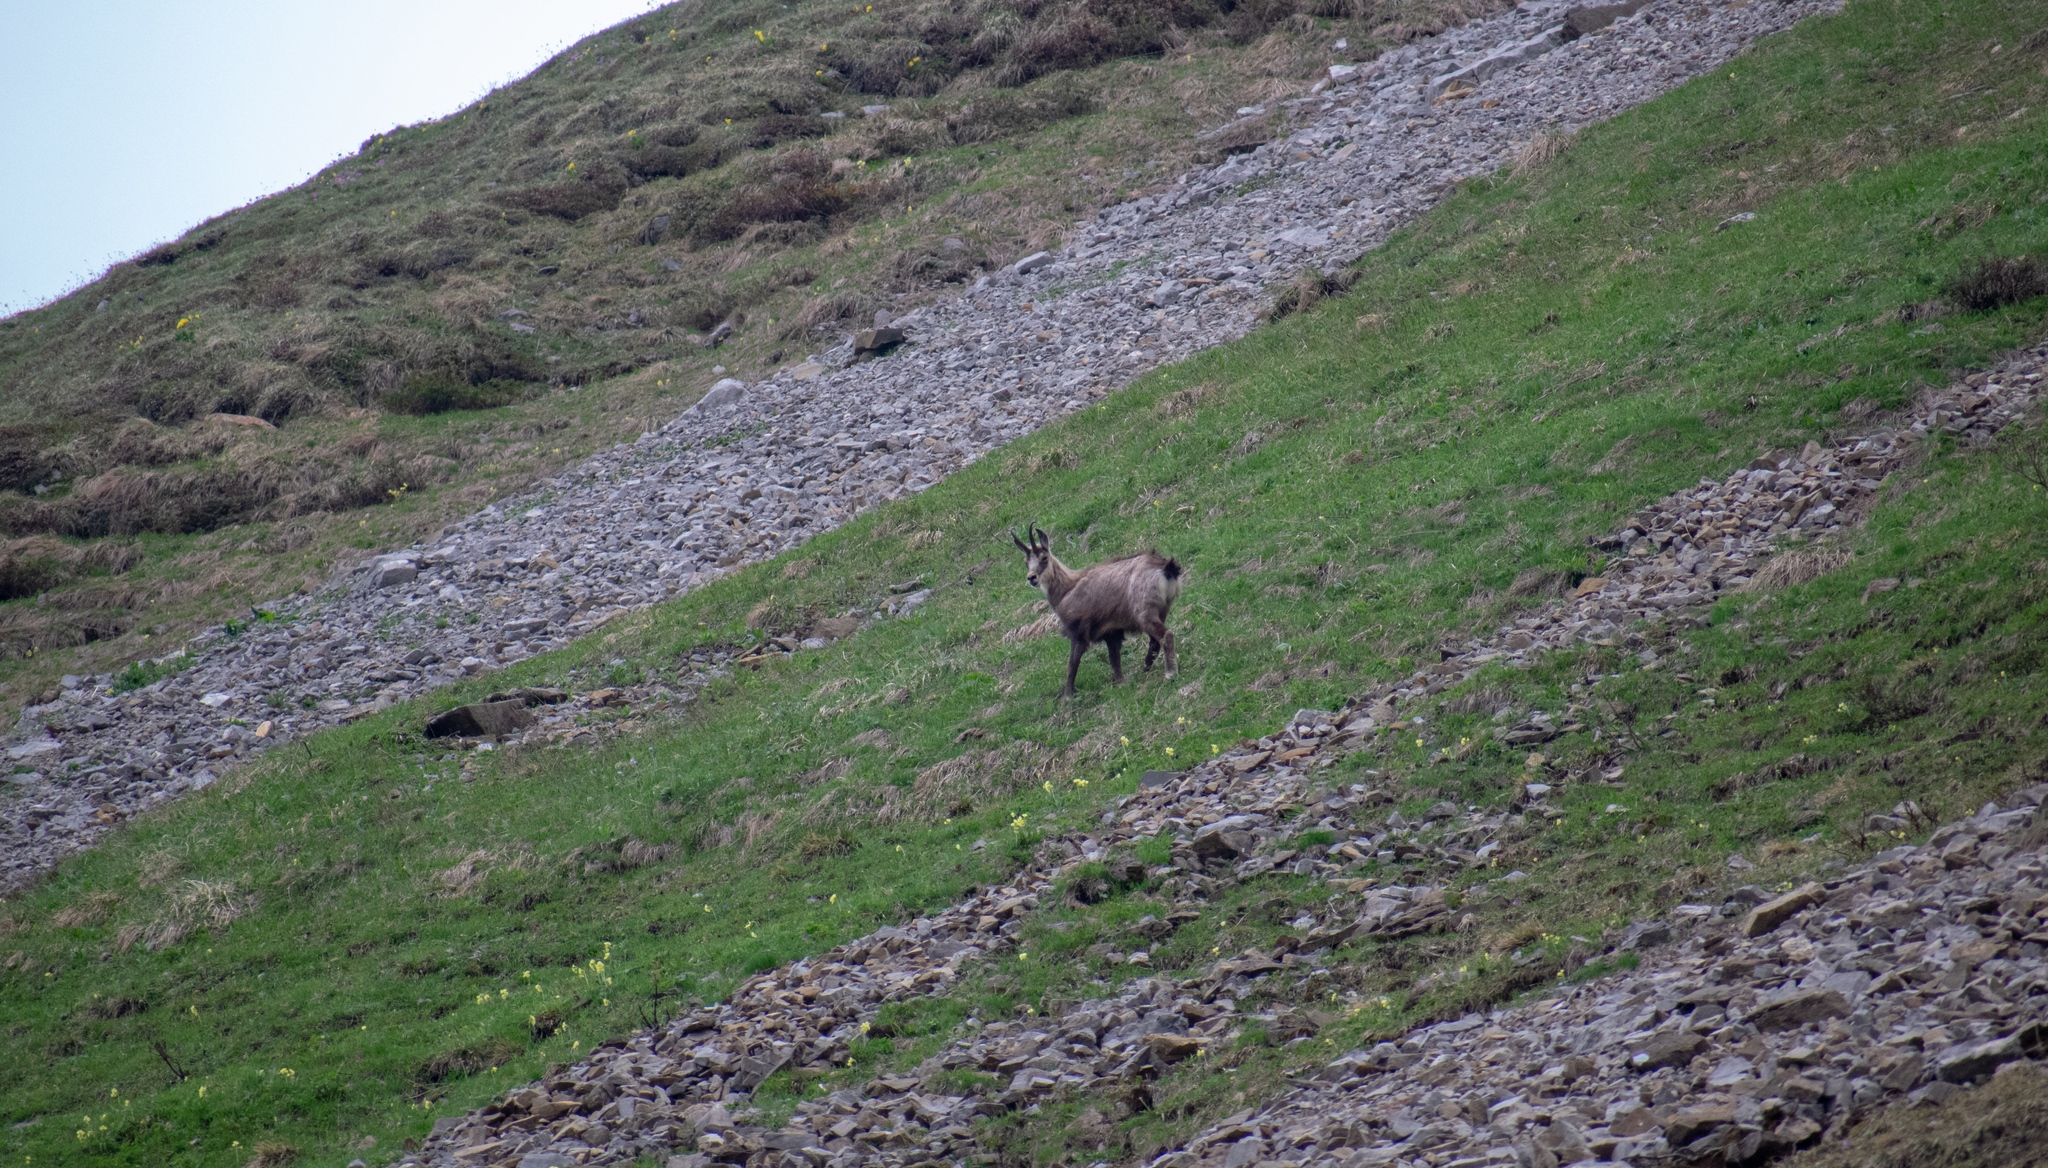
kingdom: Animalia
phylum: Chordata
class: Mammalia
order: Artiodactyla
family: Bovidae
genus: Rupicapra
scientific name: Rupicapra rupicapra
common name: Chamois
